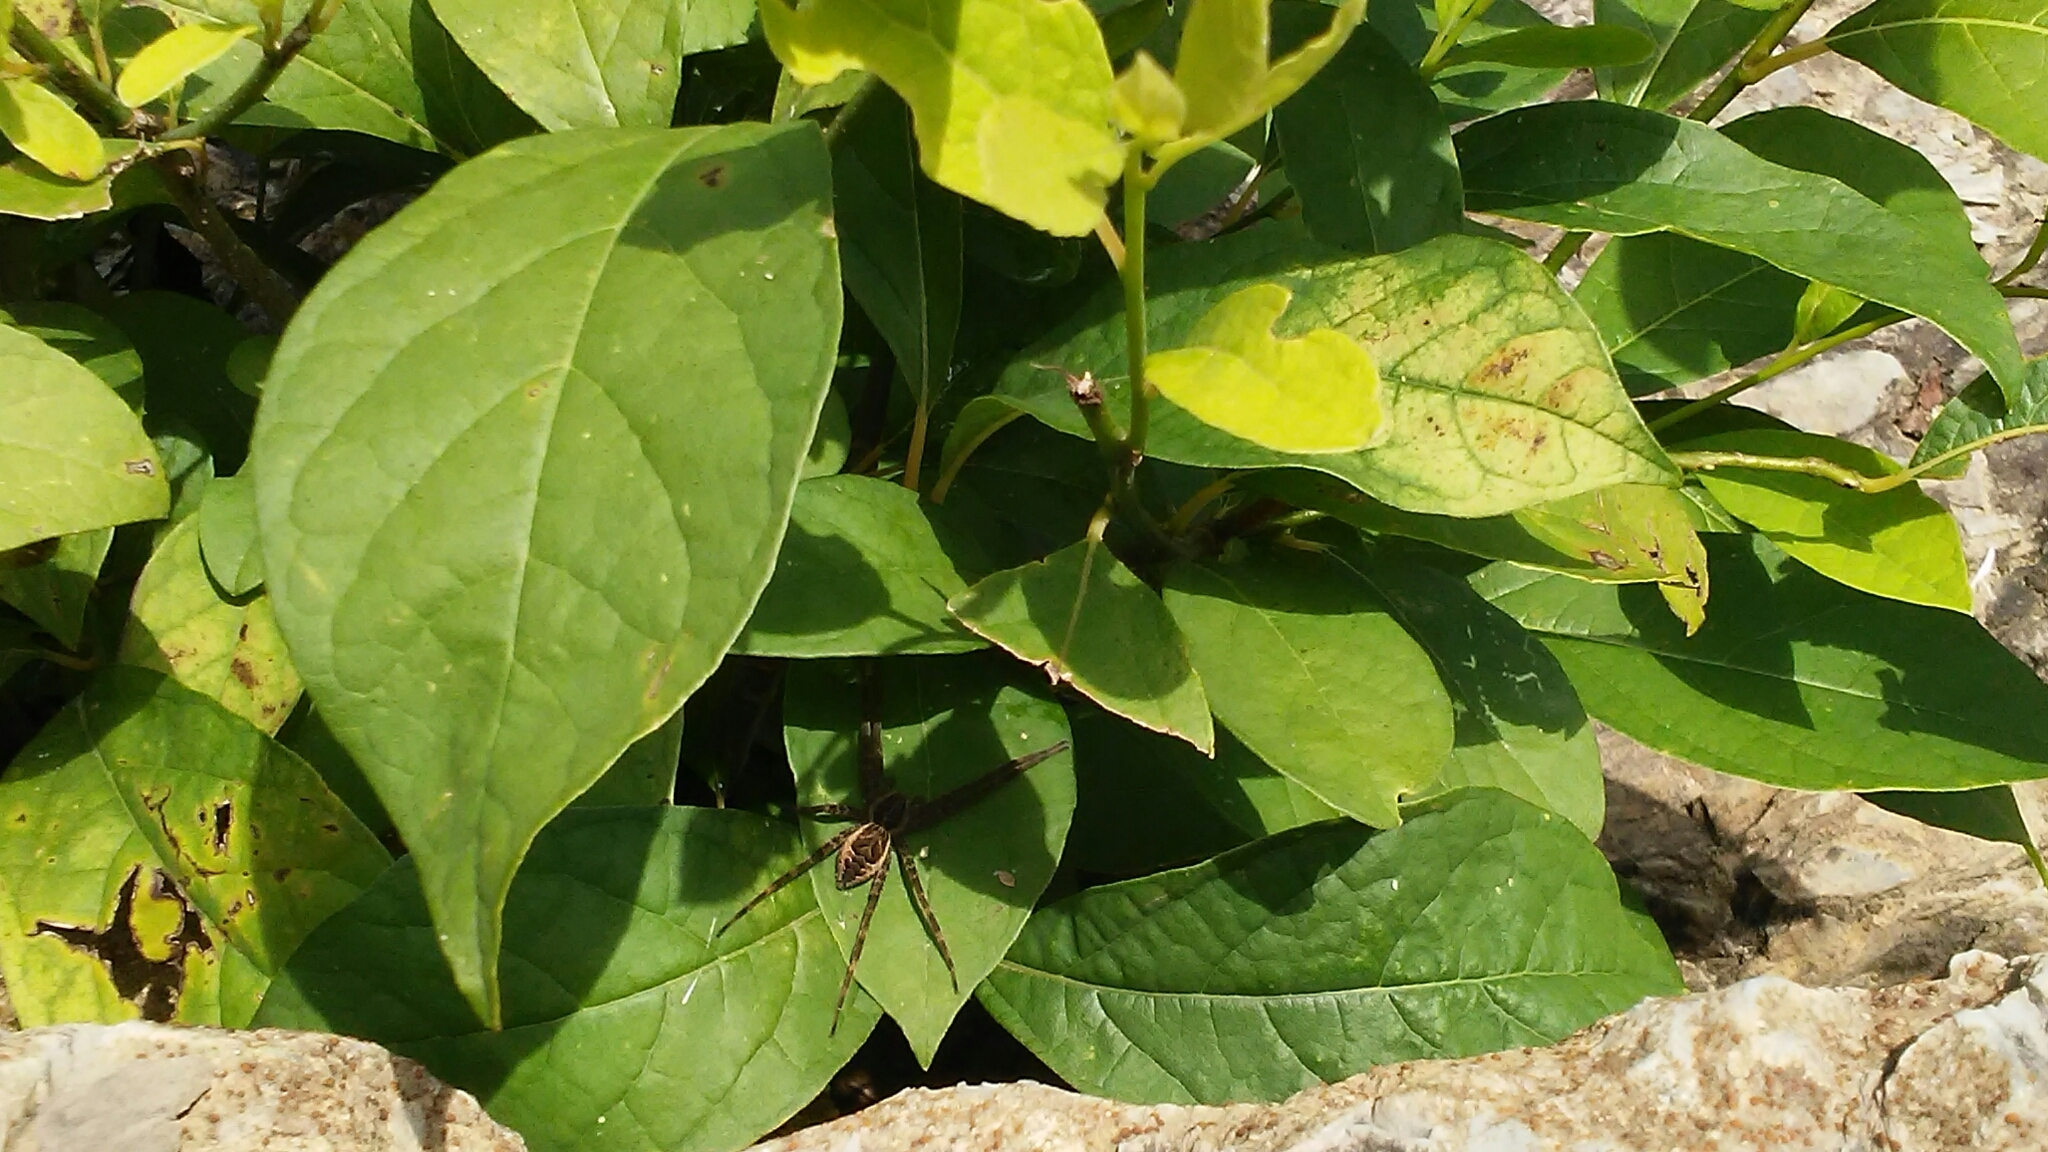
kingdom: Animalia
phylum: Arthropoda
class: Arachnida
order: Araneae
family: Pisauridae
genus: Dolomedes
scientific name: Dolomedes scriptus
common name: Striped fishing spider
